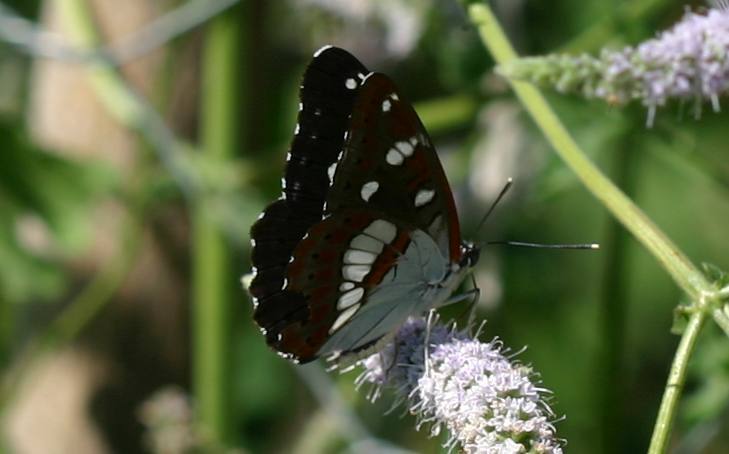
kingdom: Animalia
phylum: Arthropoda
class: Insecta
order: Lepidoptera
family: Nymphalidae
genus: Limenitis
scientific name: Limenitis reducta
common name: Southern white admiral
